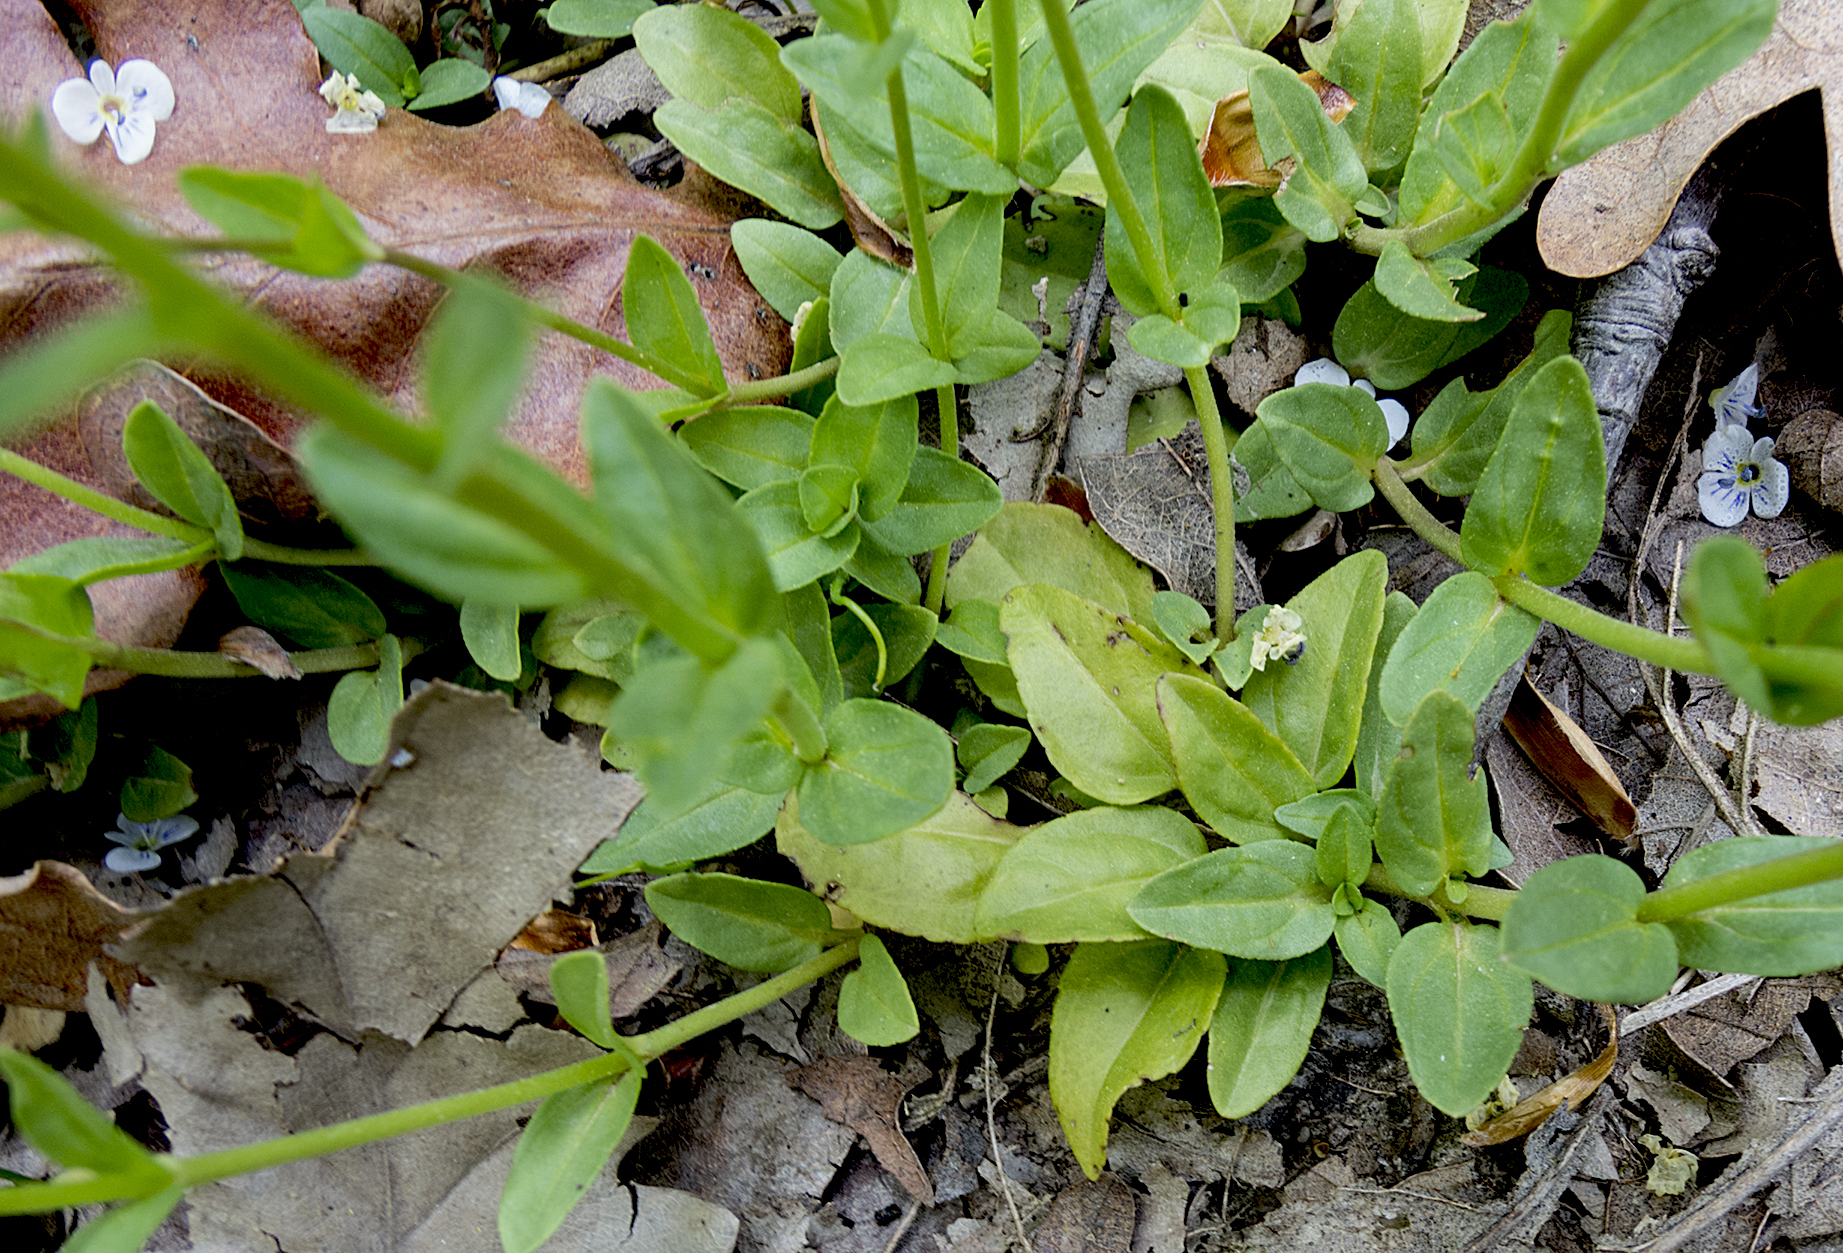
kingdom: Plantae
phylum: Tracheophyta
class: Magnoliopsida
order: Lamiales
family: Plantaginaceae
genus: Veronica
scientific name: Veronica serpyllifolia
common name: Thyme-leaved speedwell
